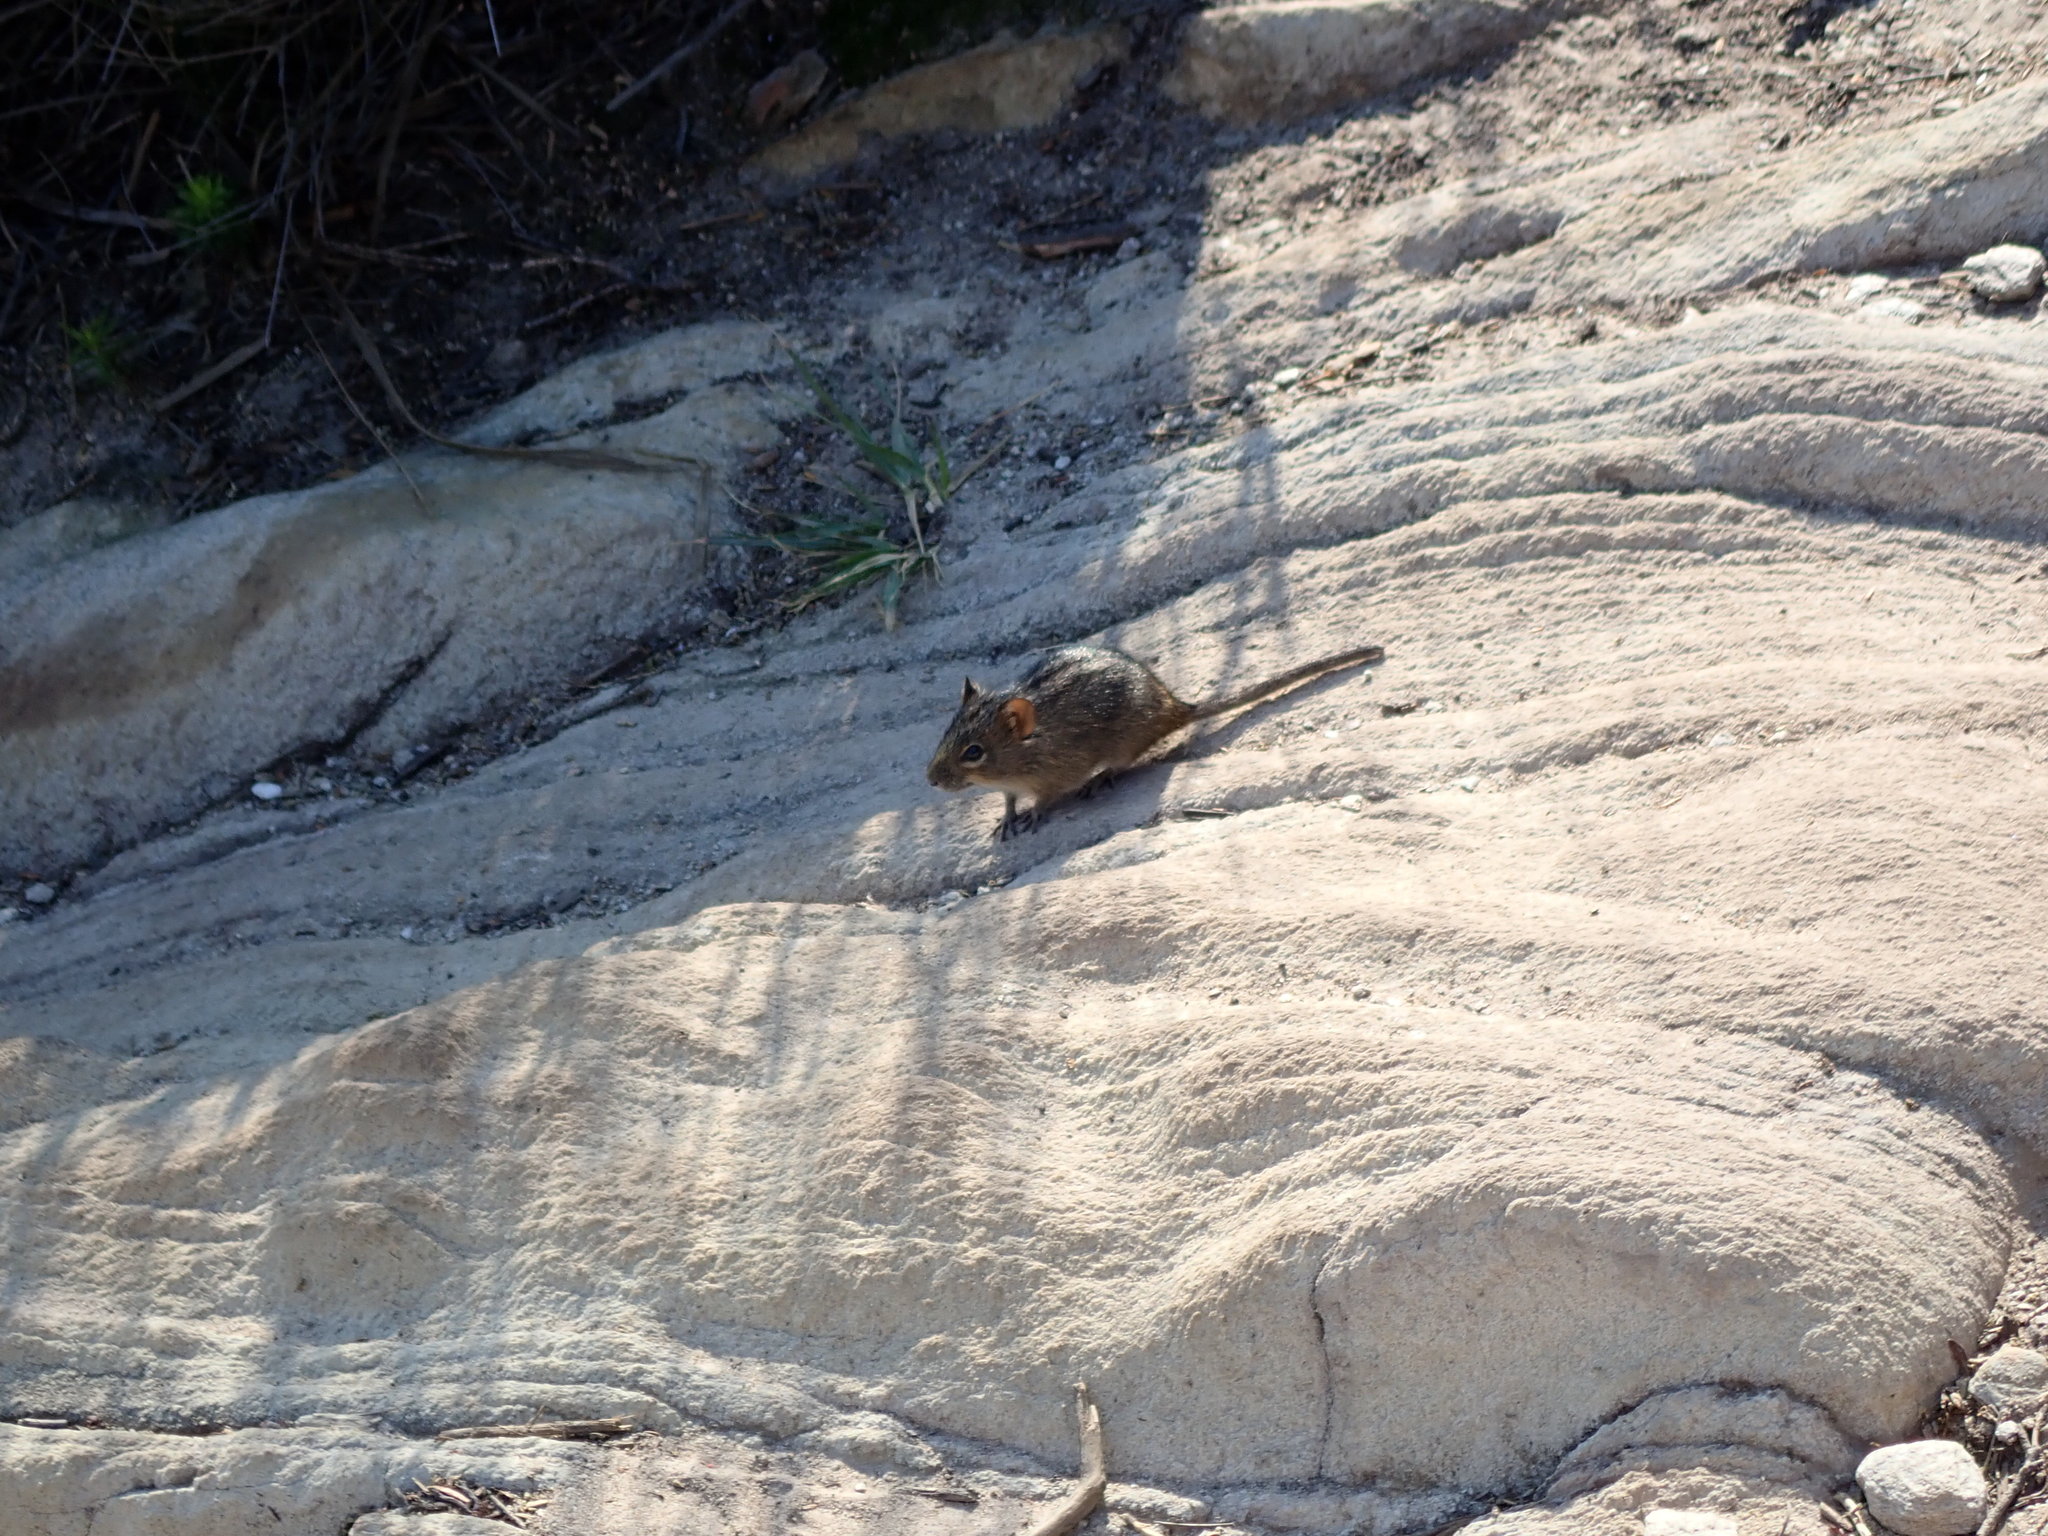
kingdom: Animalia
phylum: Chordata
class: Mammalia
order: Rodentia
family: Muridae
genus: Rhabdomys
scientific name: Rhabdomys pumilio
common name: Xeric four-striped grass rat
